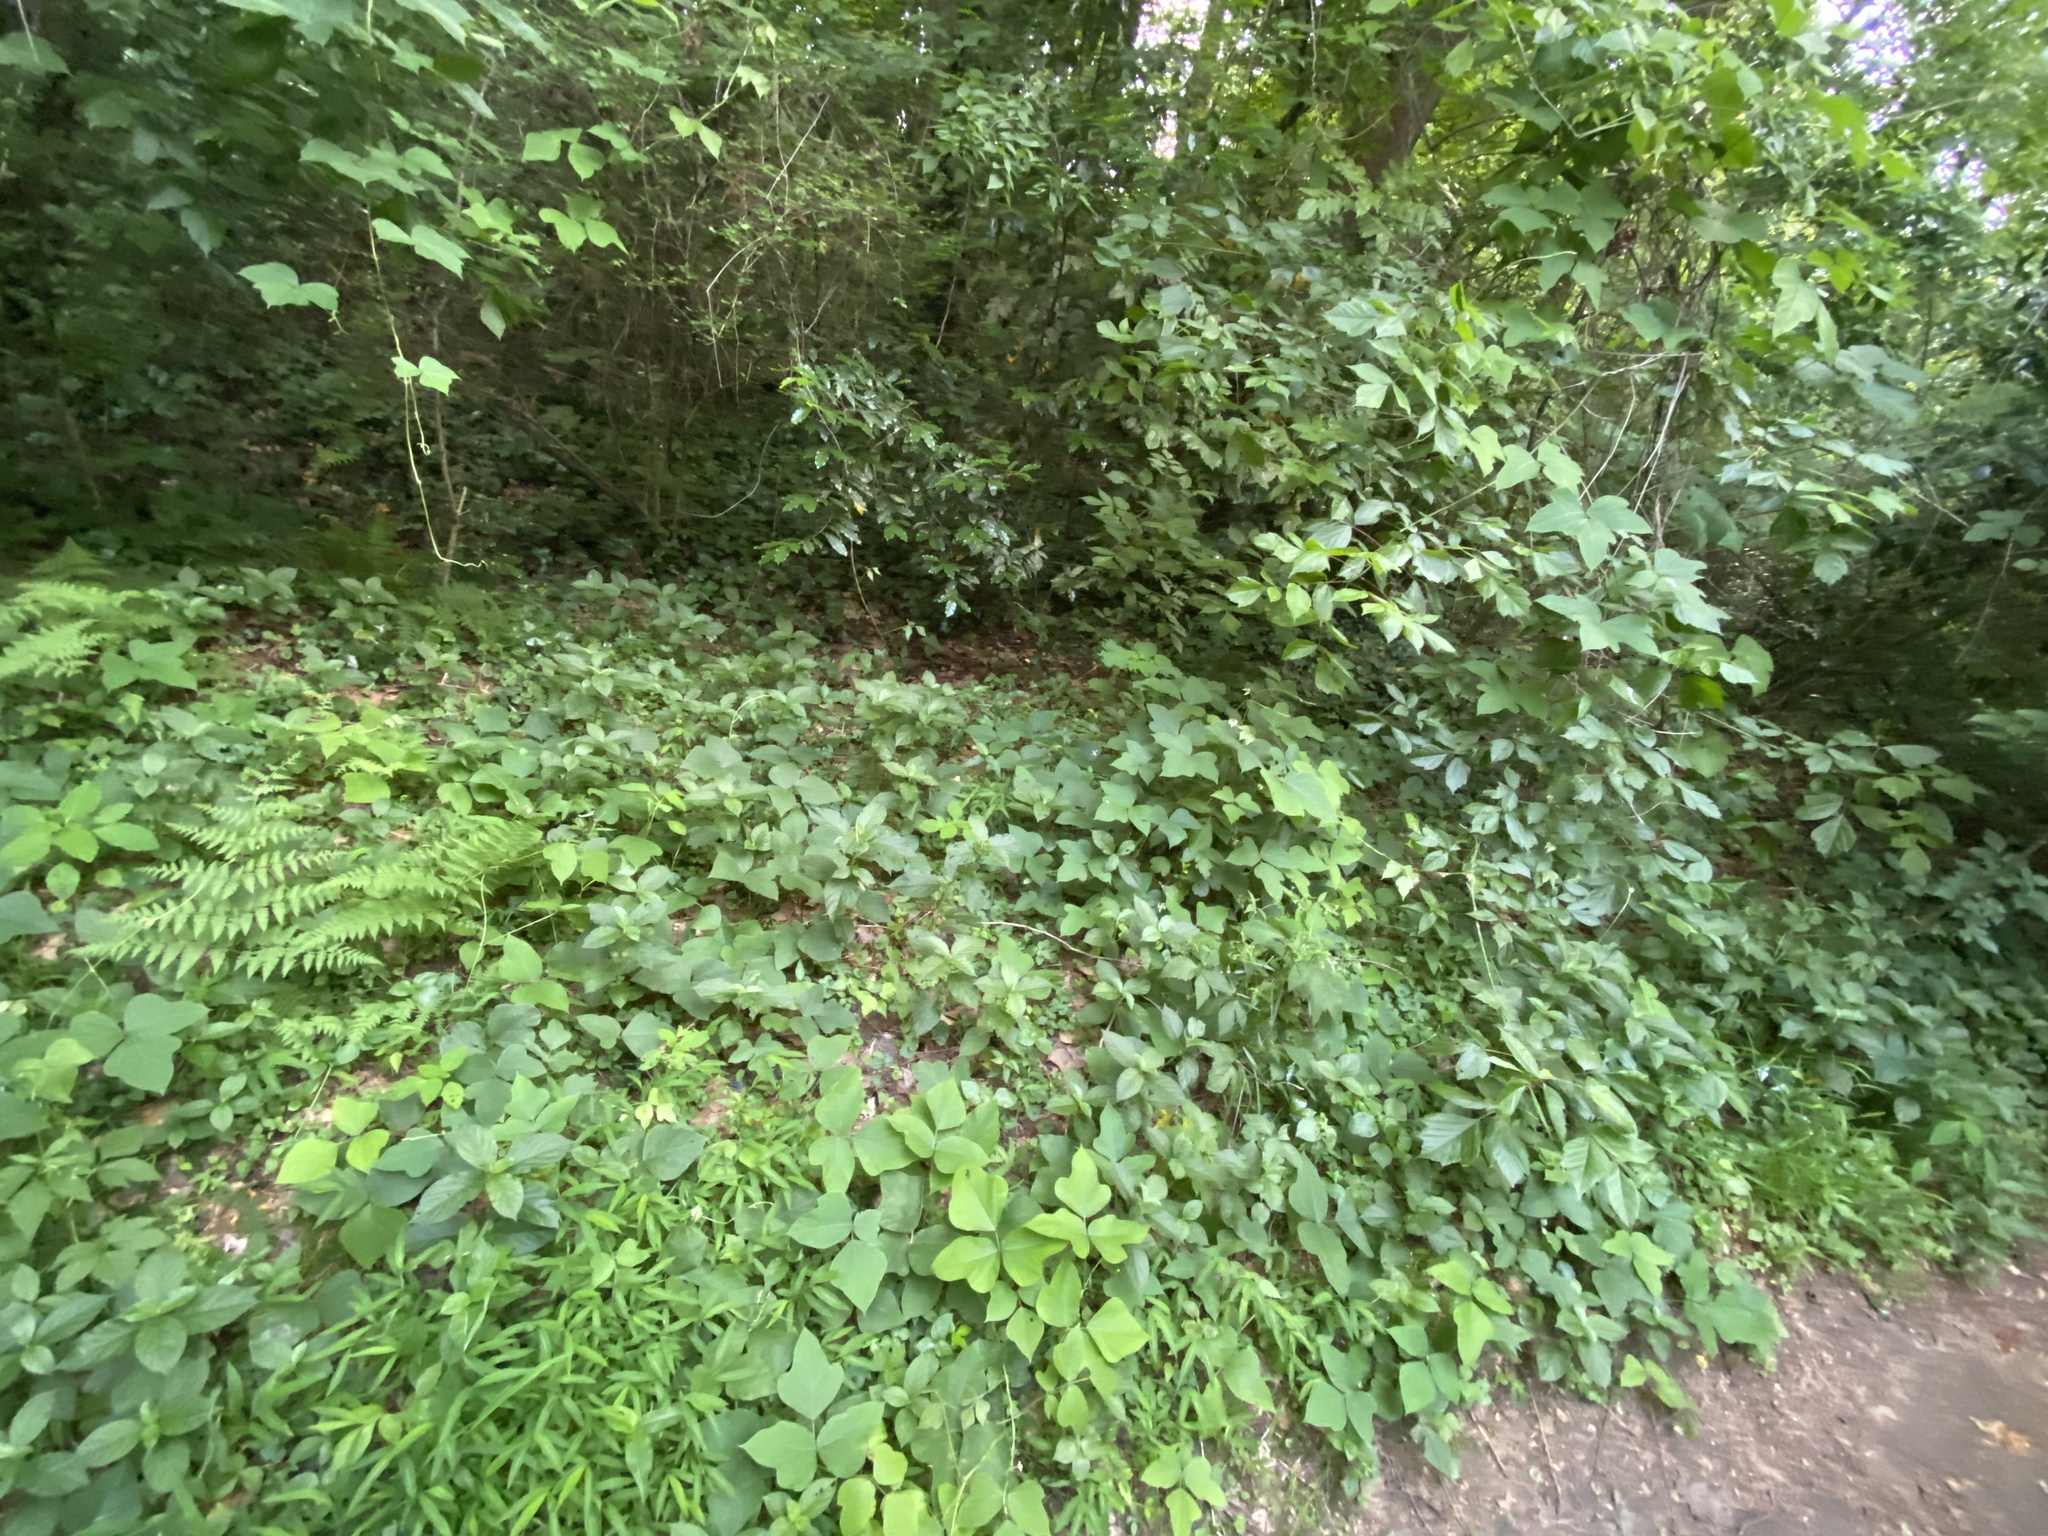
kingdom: Plantae
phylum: Tracheophyta
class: Magnoliopsida
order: Fabales
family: Fabaceae
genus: Pueraria
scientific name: Pueraria montana
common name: Kudzu
